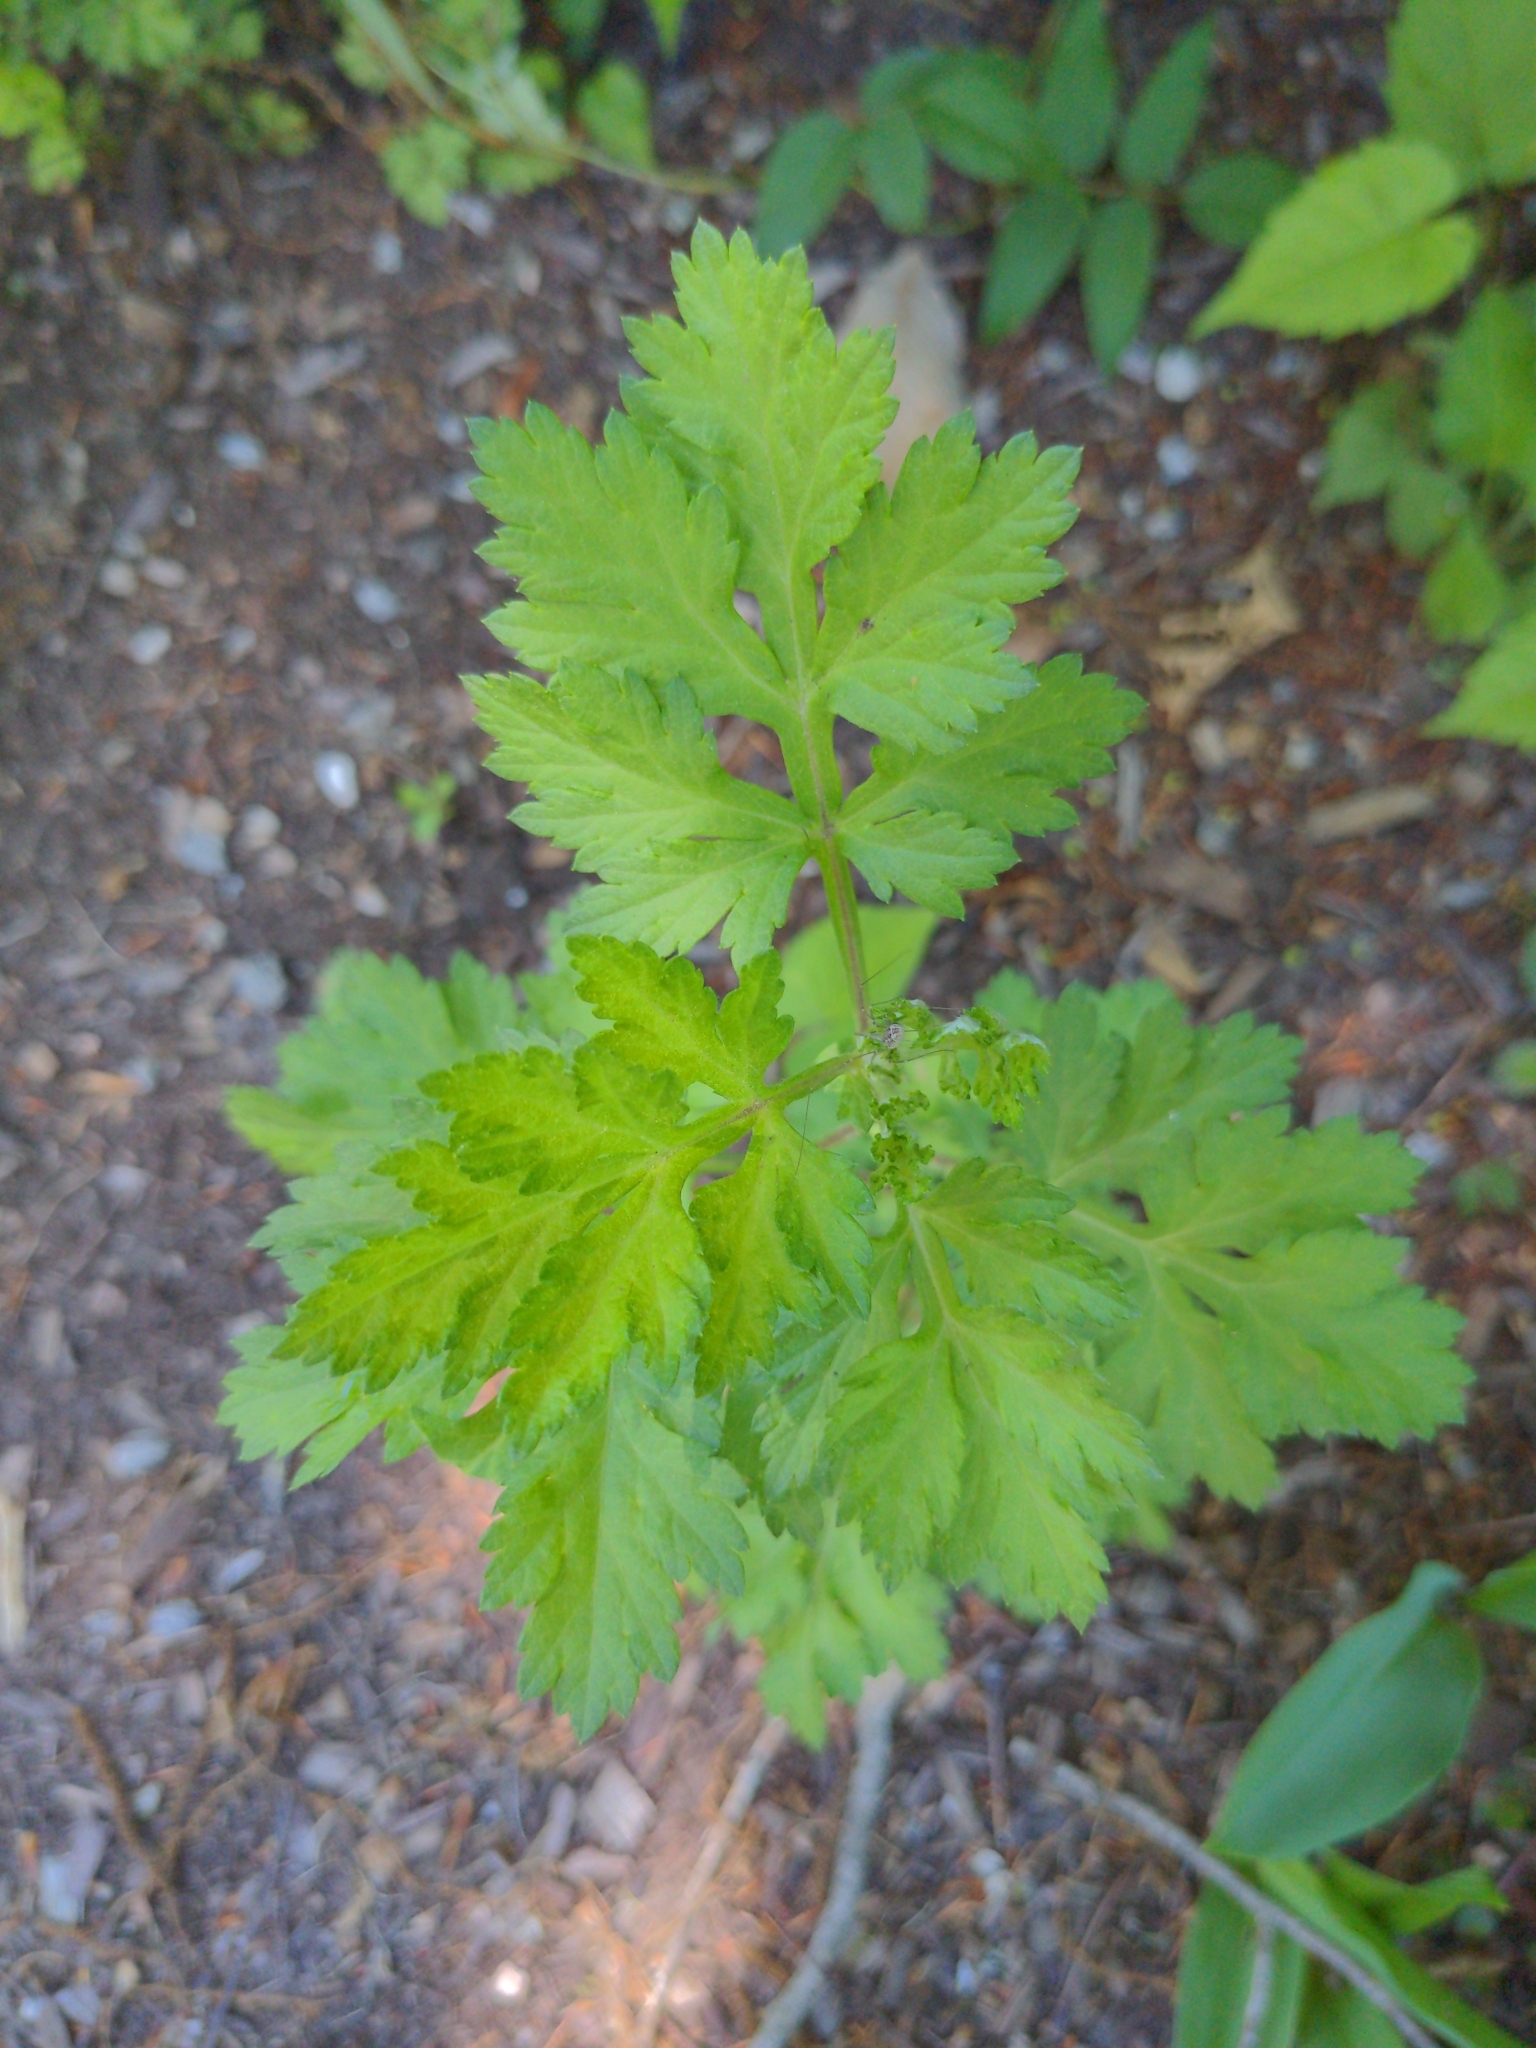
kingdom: Plantae
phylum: Tracheophyta
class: Magnoliopsida
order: Asterales
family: Asteraceae
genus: Artemisia
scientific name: Artemisia vulgaris
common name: Mugwort
